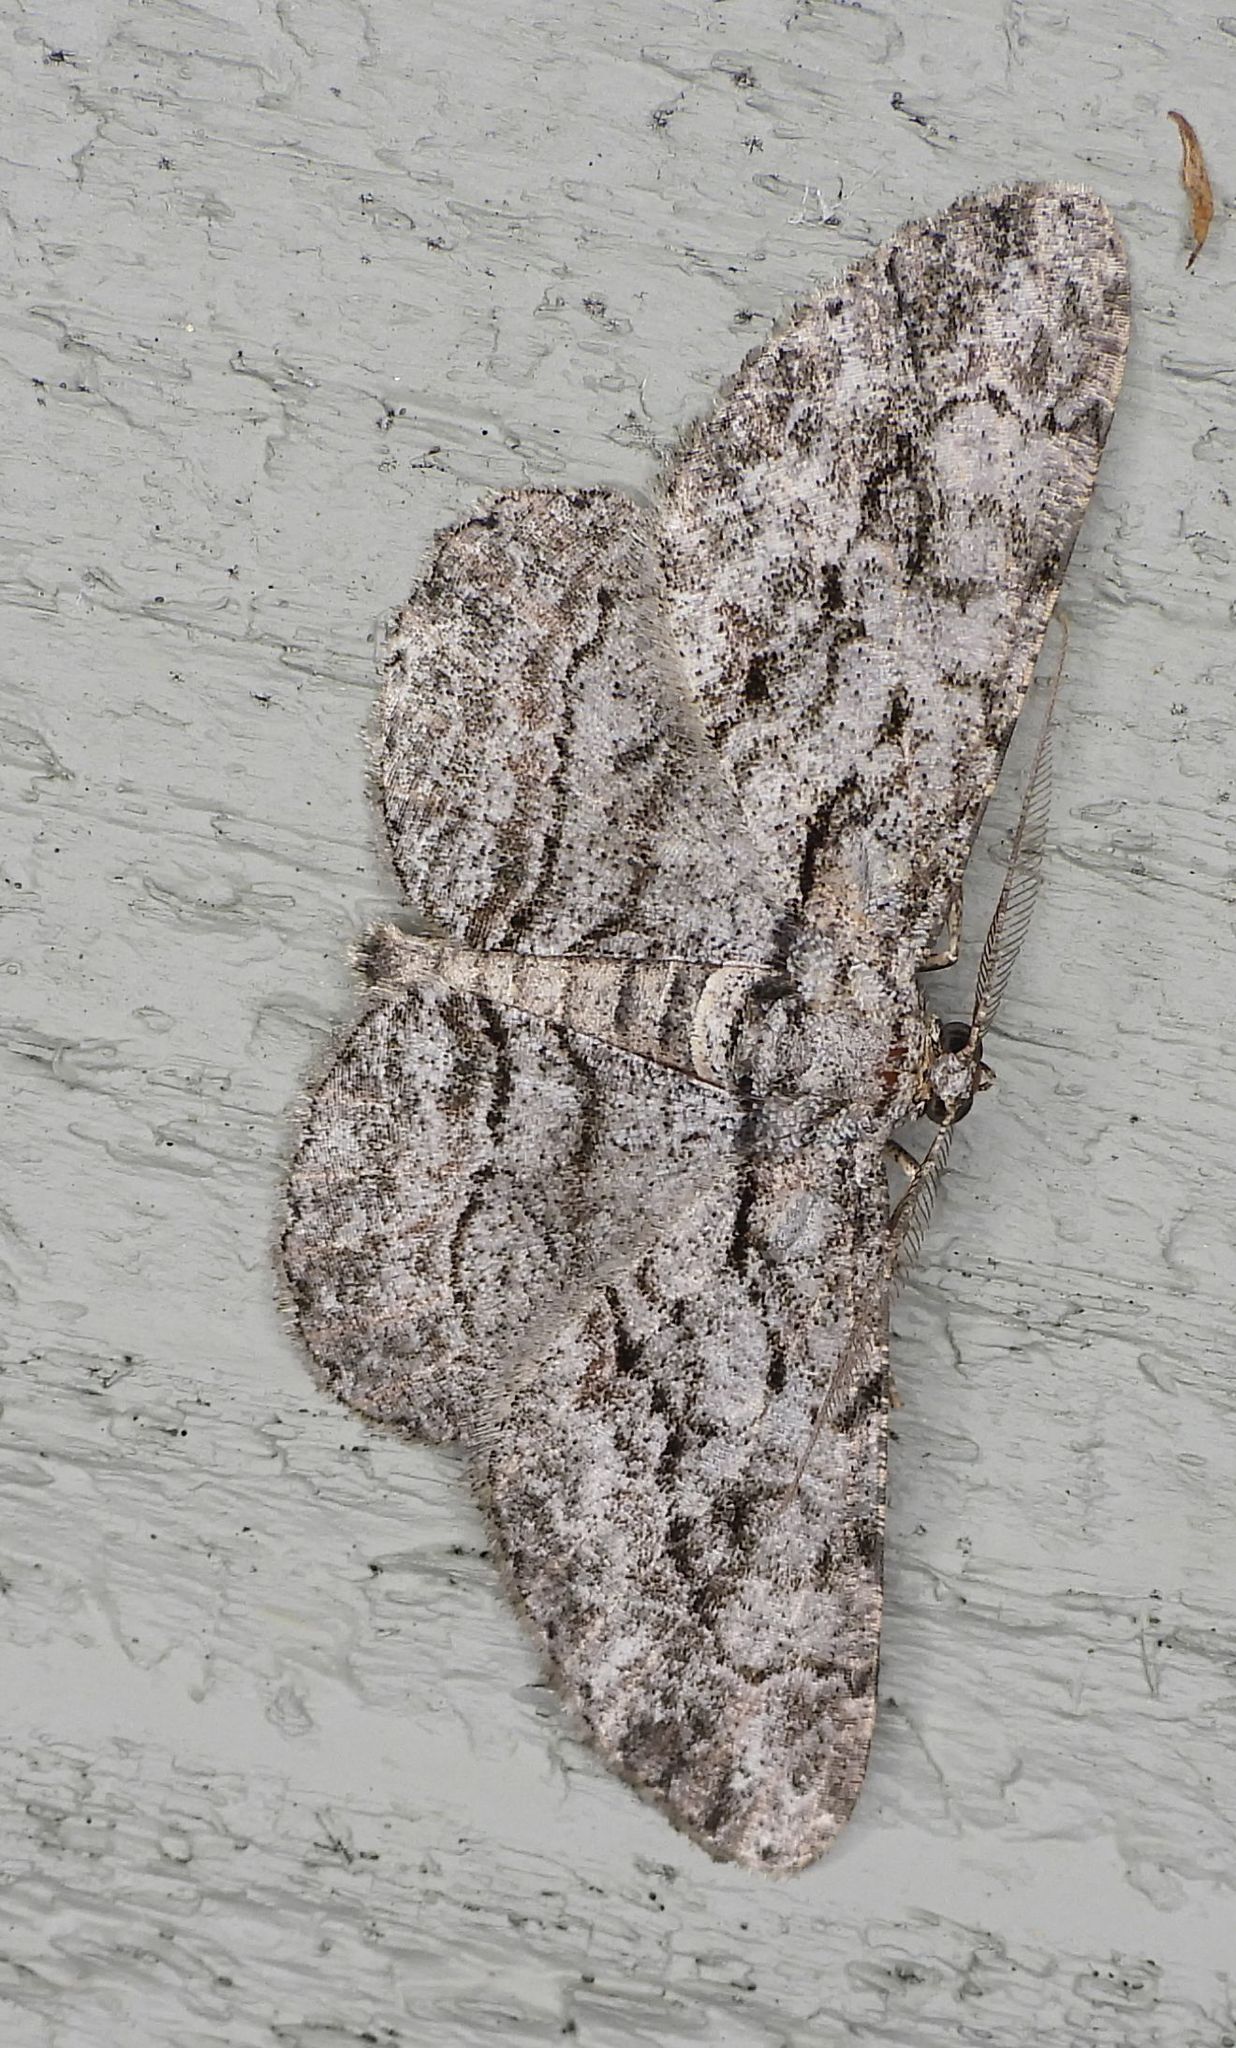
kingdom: Animalia
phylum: Arthropoda
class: Insecta
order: Lepidoptera
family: Geometridae
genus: Anavitrinella
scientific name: Anavitrinella pampinaria
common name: Common gray
